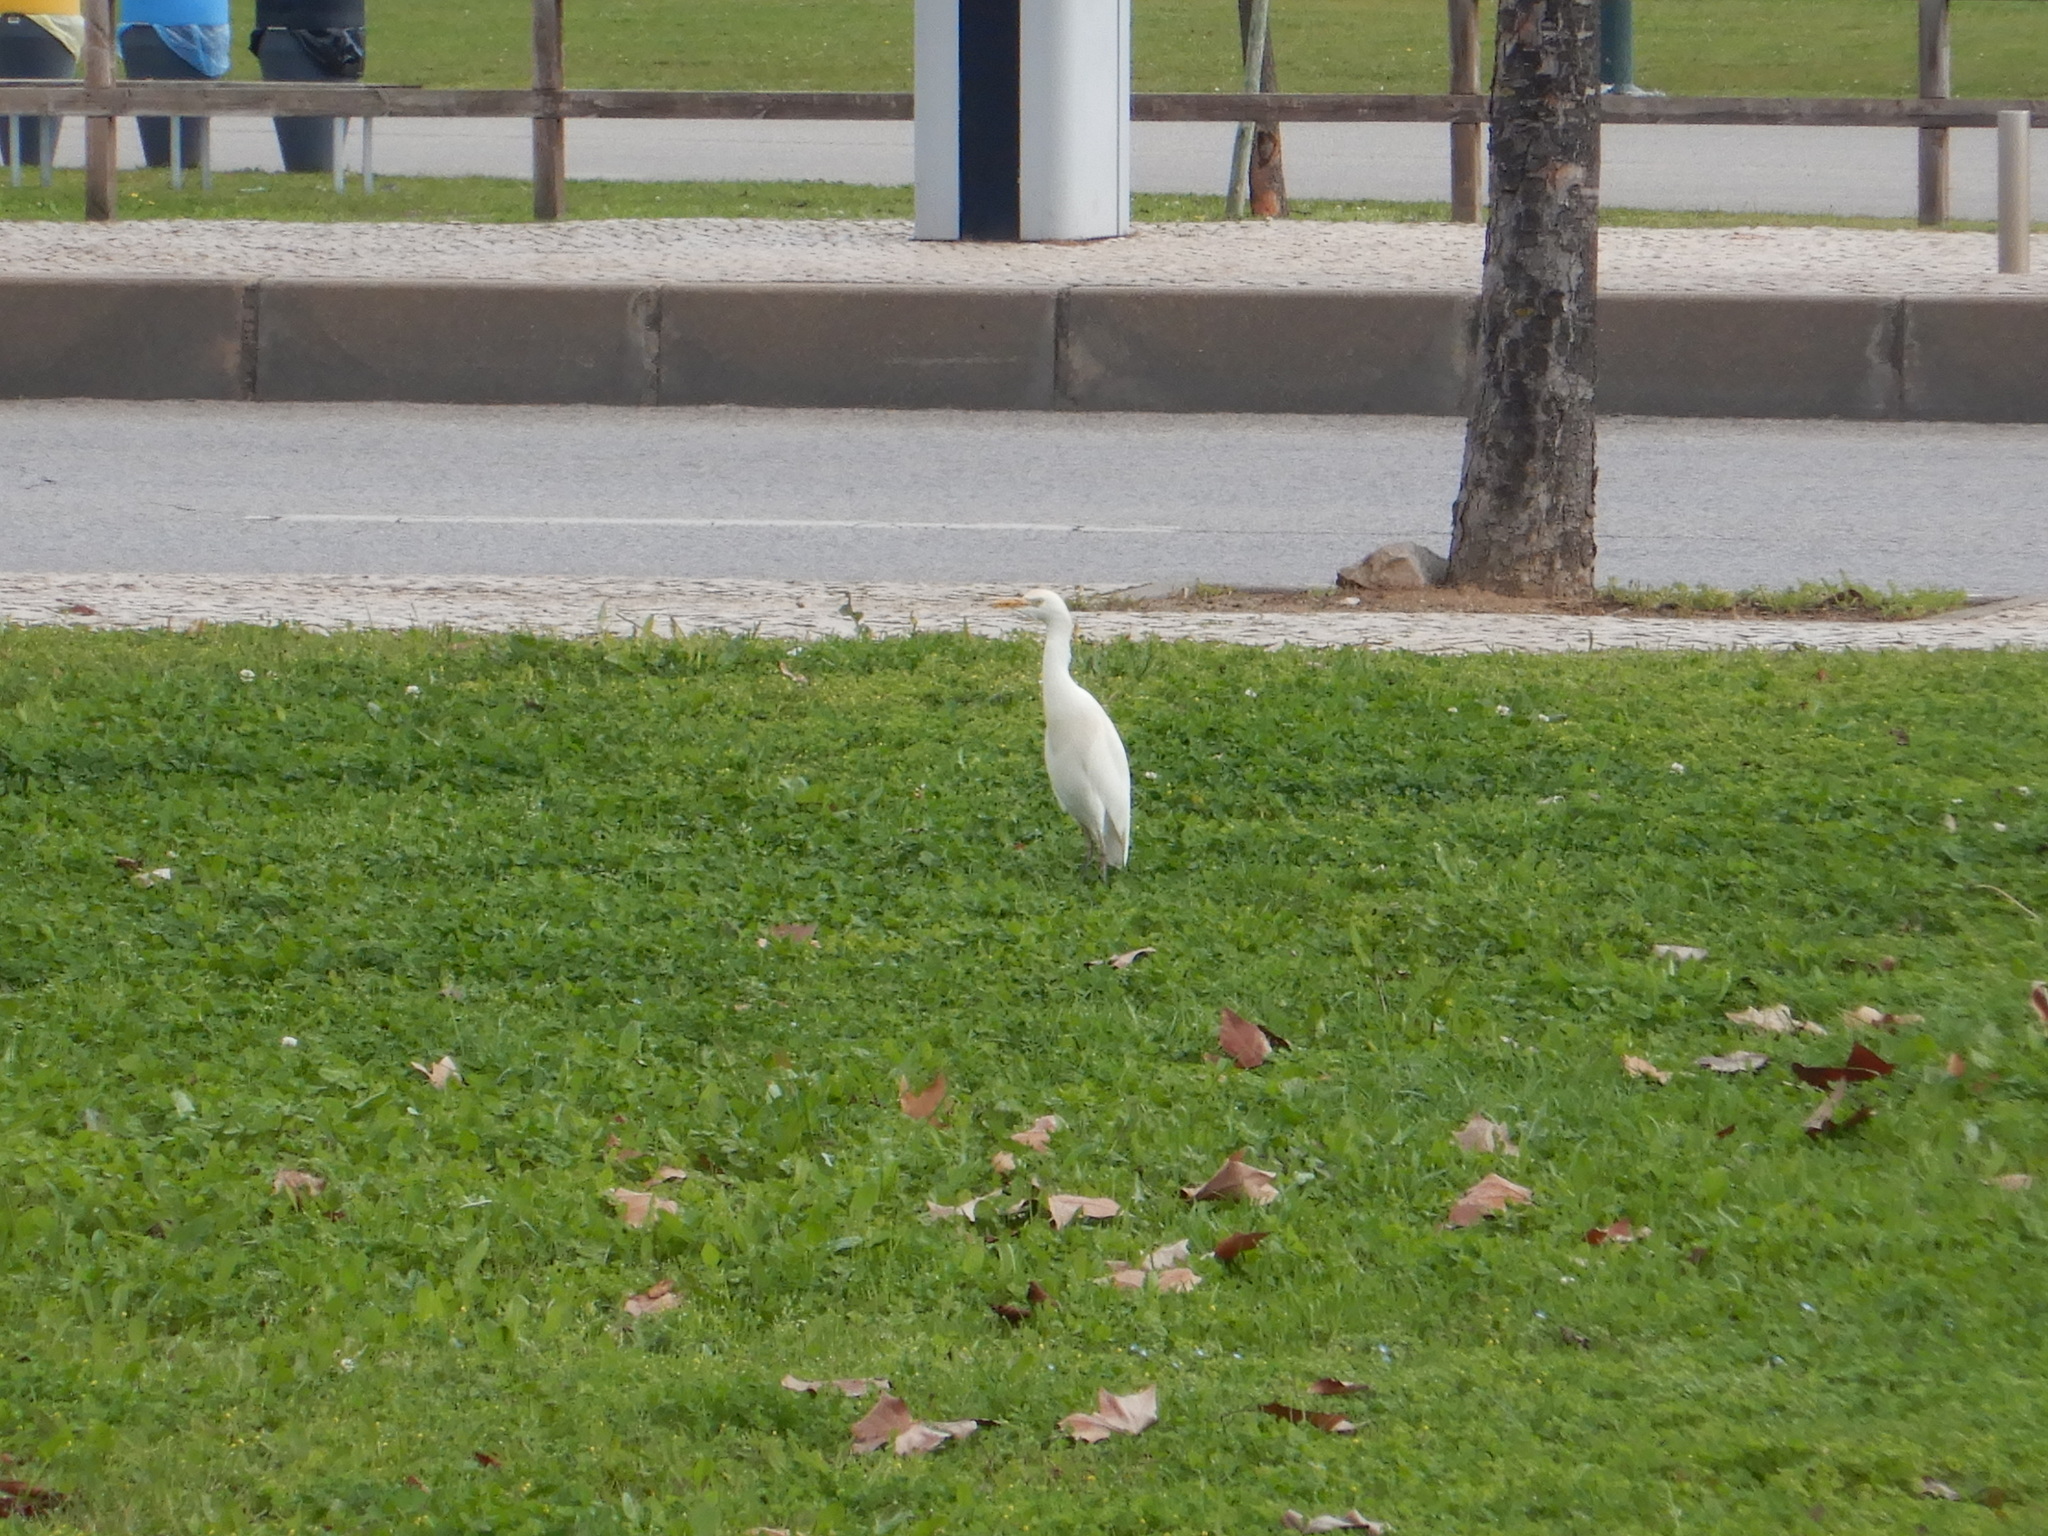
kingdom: Animalia
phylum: Chordata
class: Aves
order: Pelecaniformes
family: Ardeidae
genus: Bubulcus
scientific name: Bubulcus ibis
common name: Cattle egret
